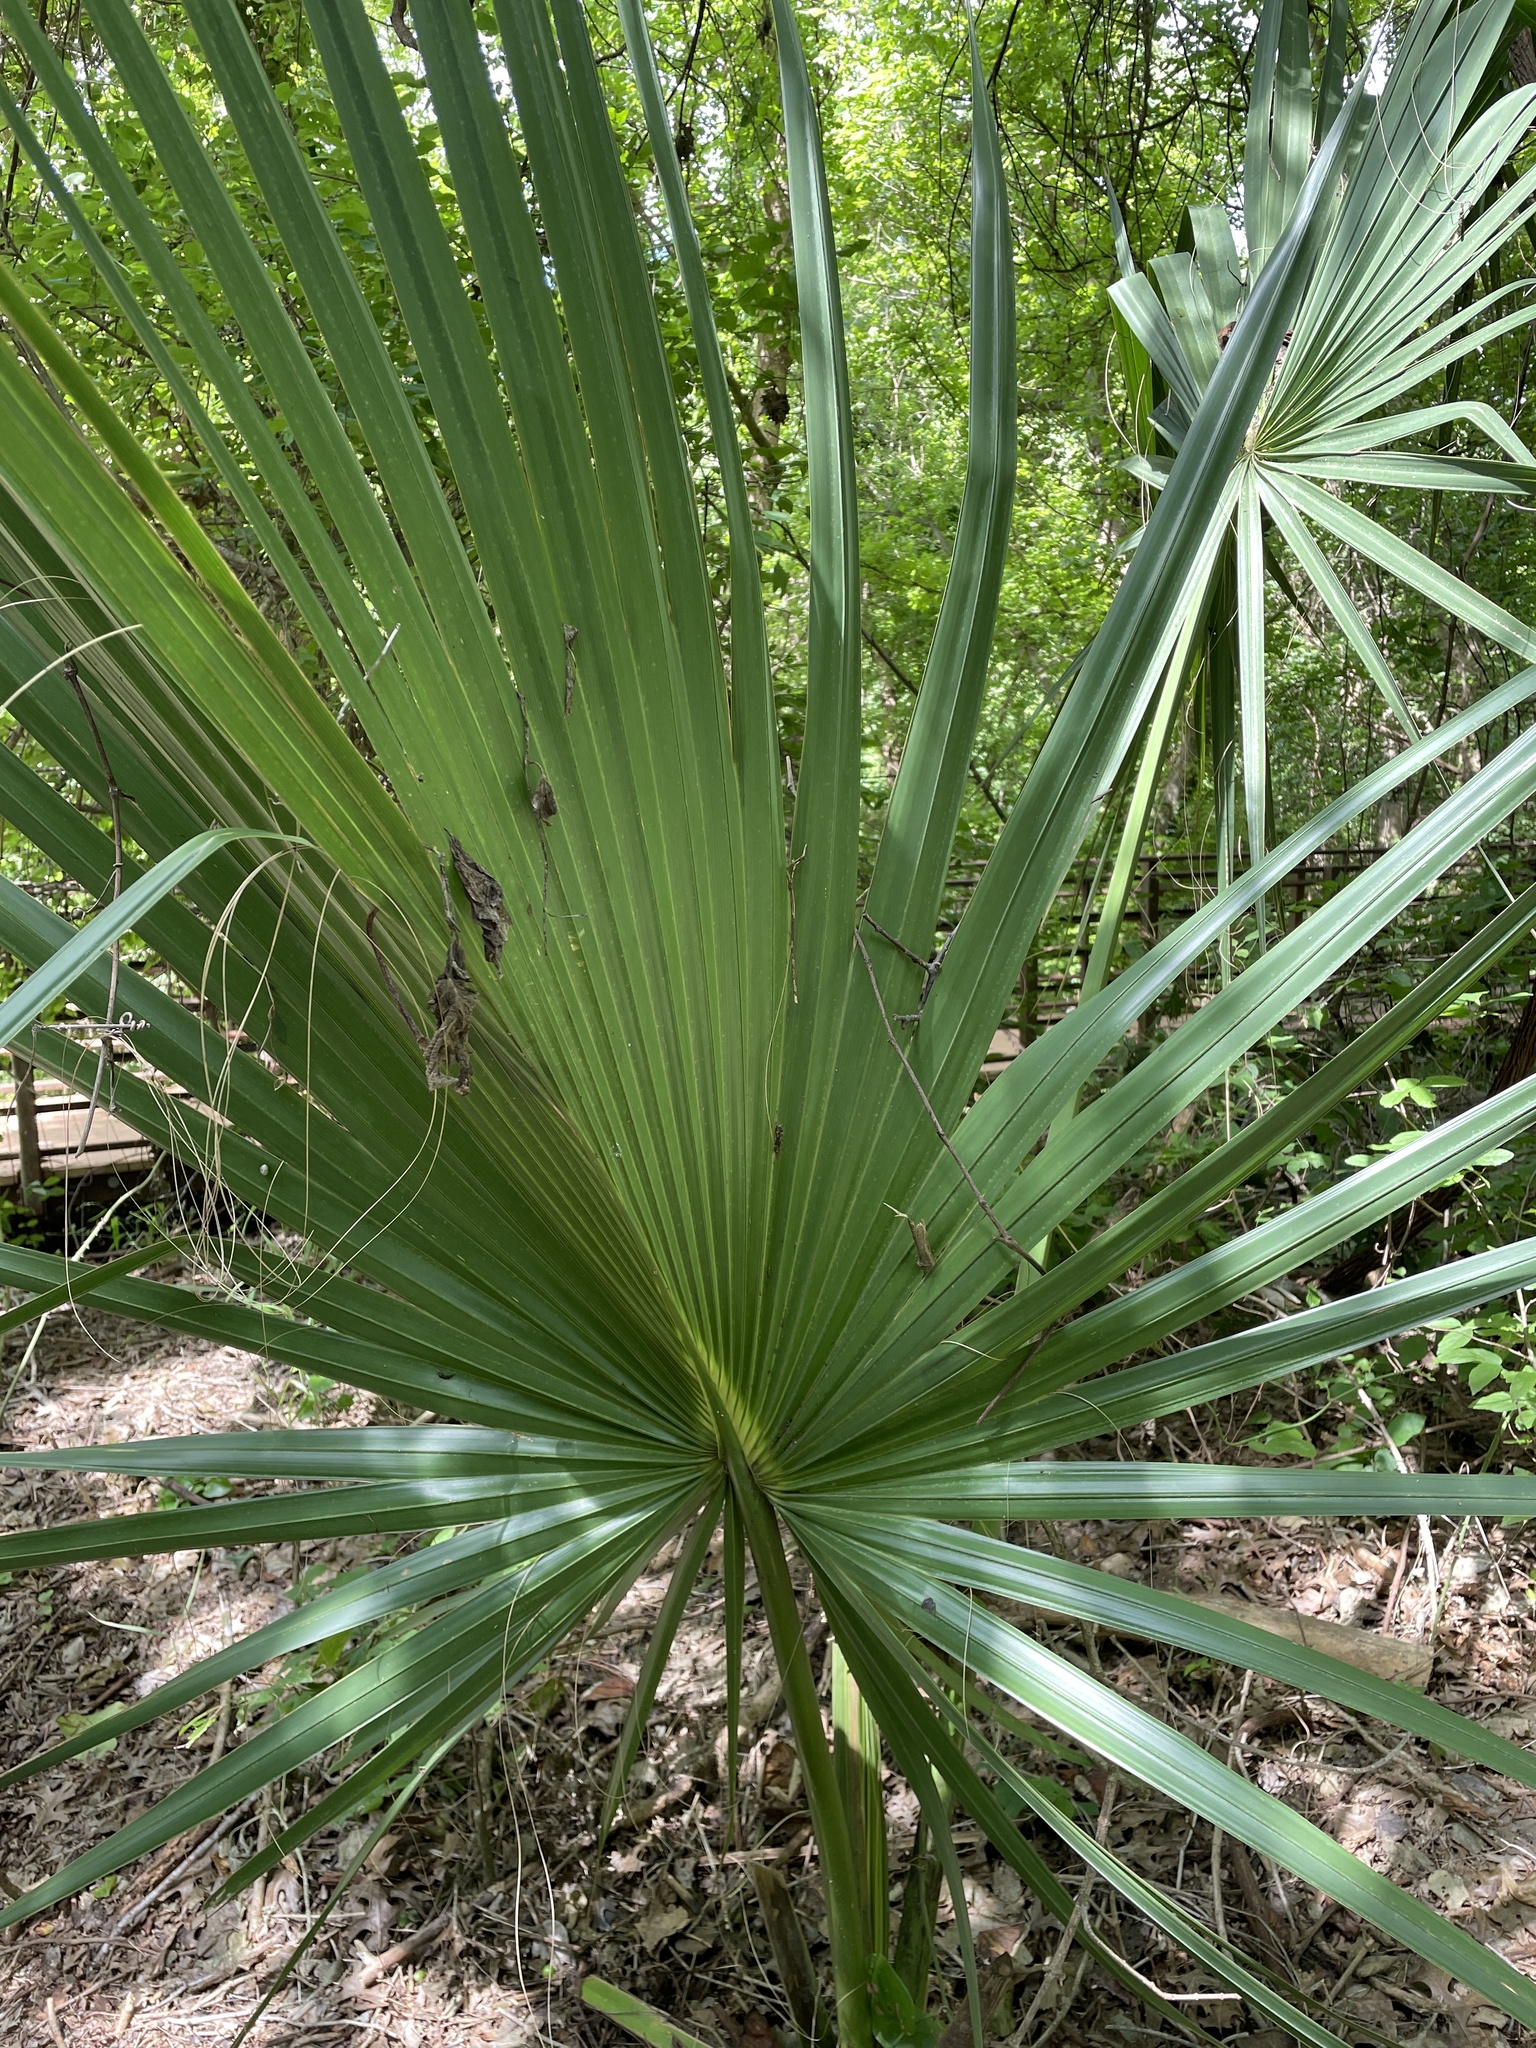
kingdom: Plantae
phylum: Tracheophyta
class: Liliopsida
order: Arecales
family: Arecaceae
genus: Sabal
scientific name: Sabal minor
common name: Dwarf palmetto
